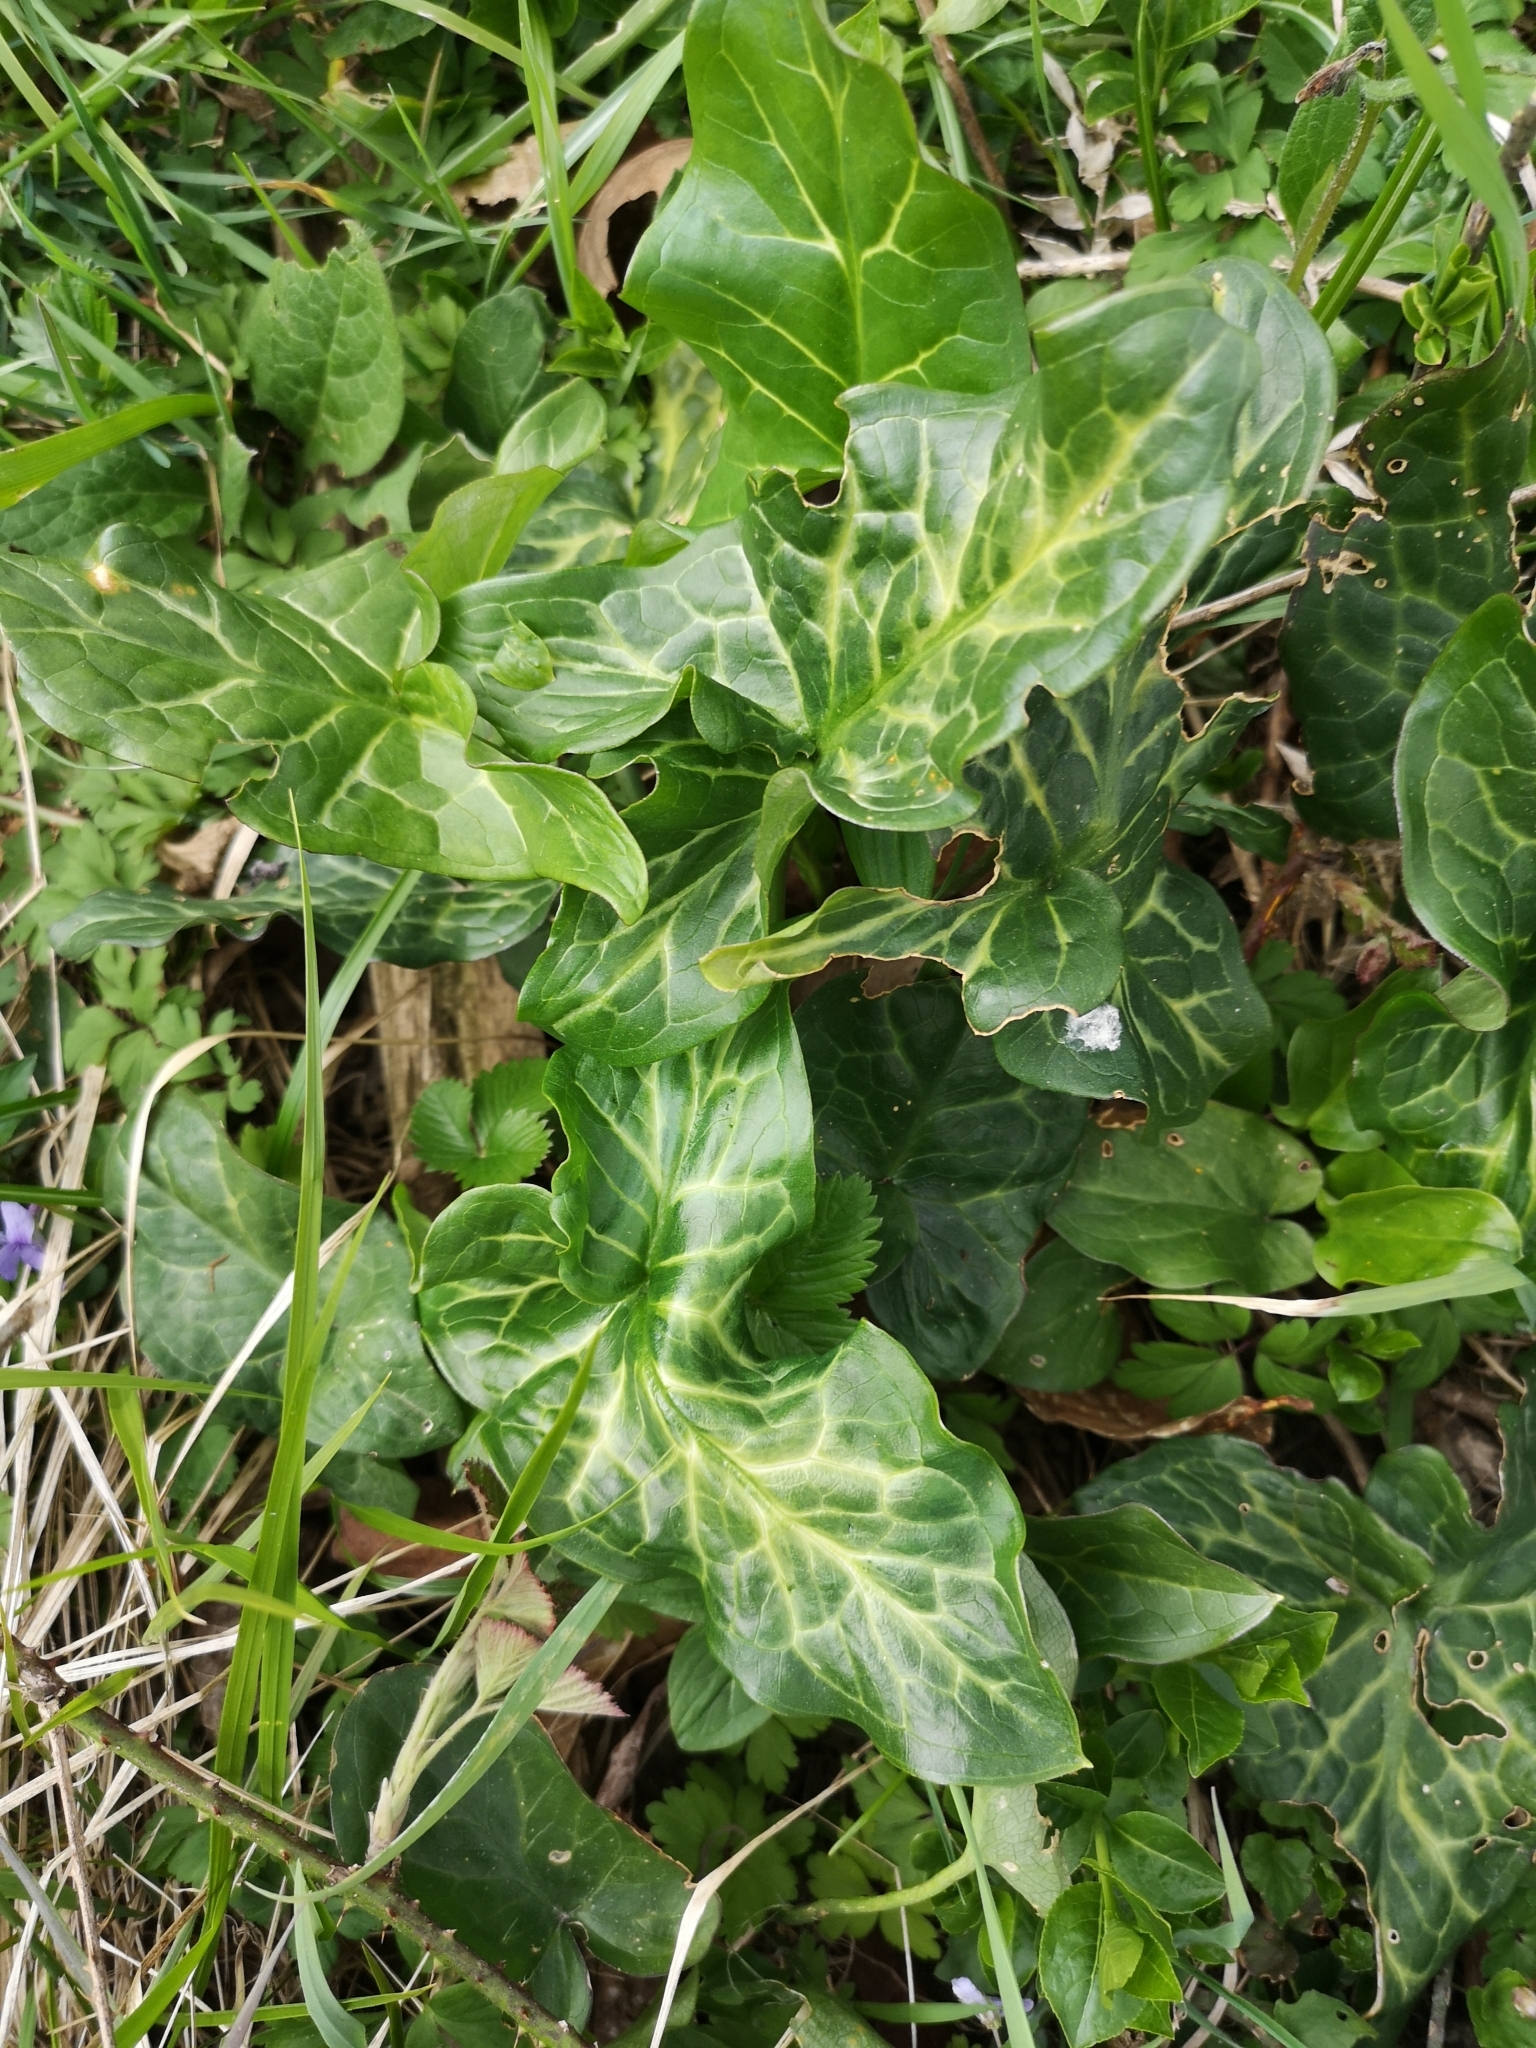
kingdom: Plantae
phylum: Tracheophyta
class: Liliopsida
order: Alismatales
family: Araceae
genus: Arum
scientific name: Arum italicum
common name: Italian lords-and-ladies
